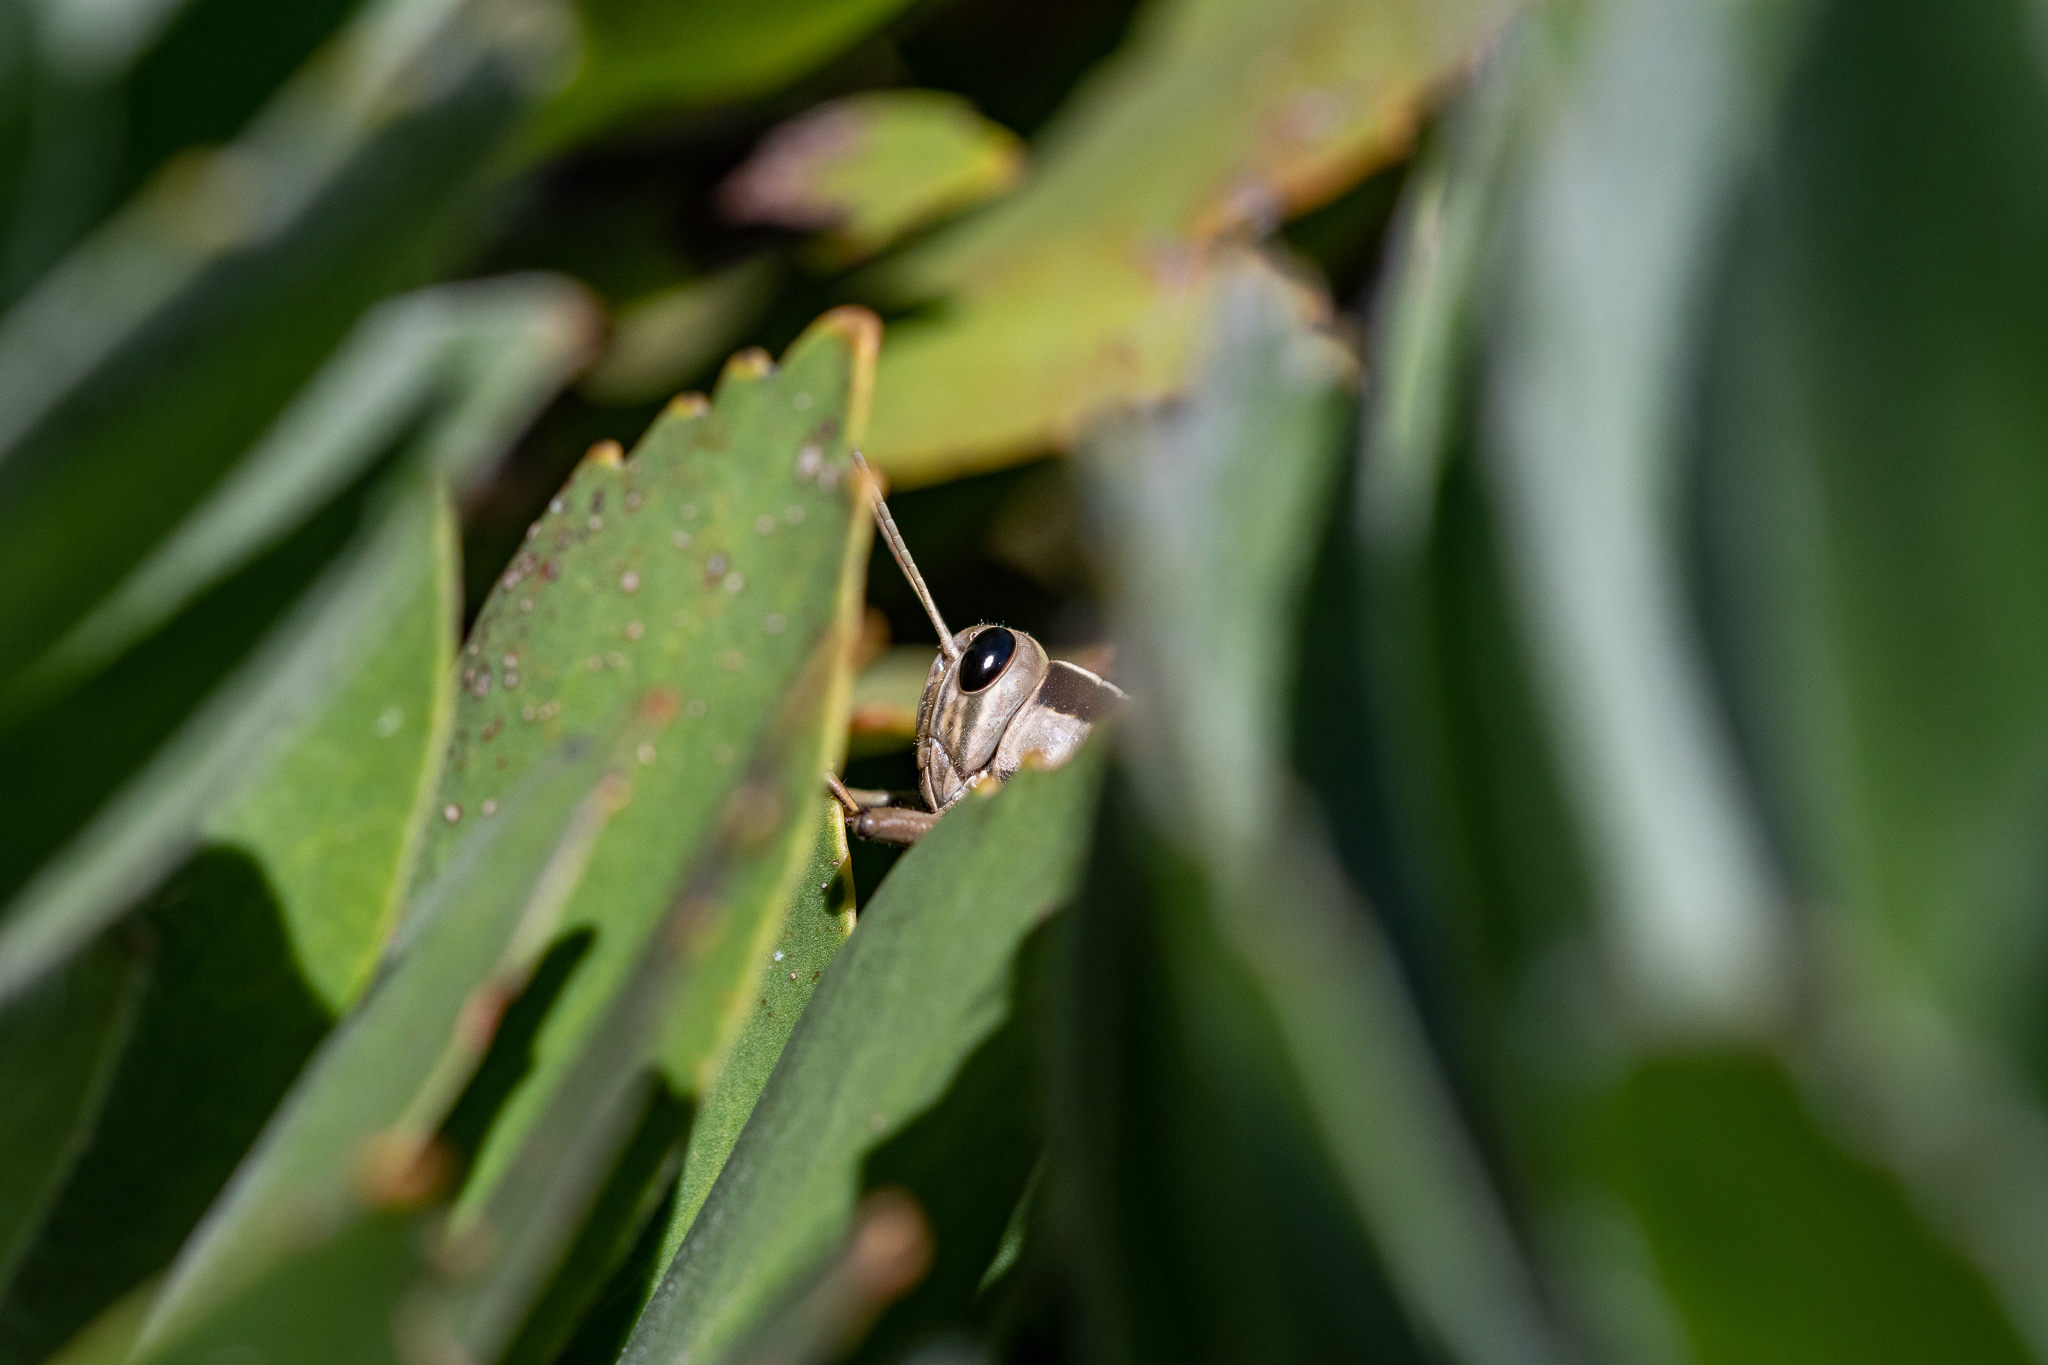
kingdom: Animalia
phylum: Arthropoda
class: Insecta
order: Orthoptera
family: Acrididae
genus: Acanthacris
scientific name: Acanthacris ruficornis
